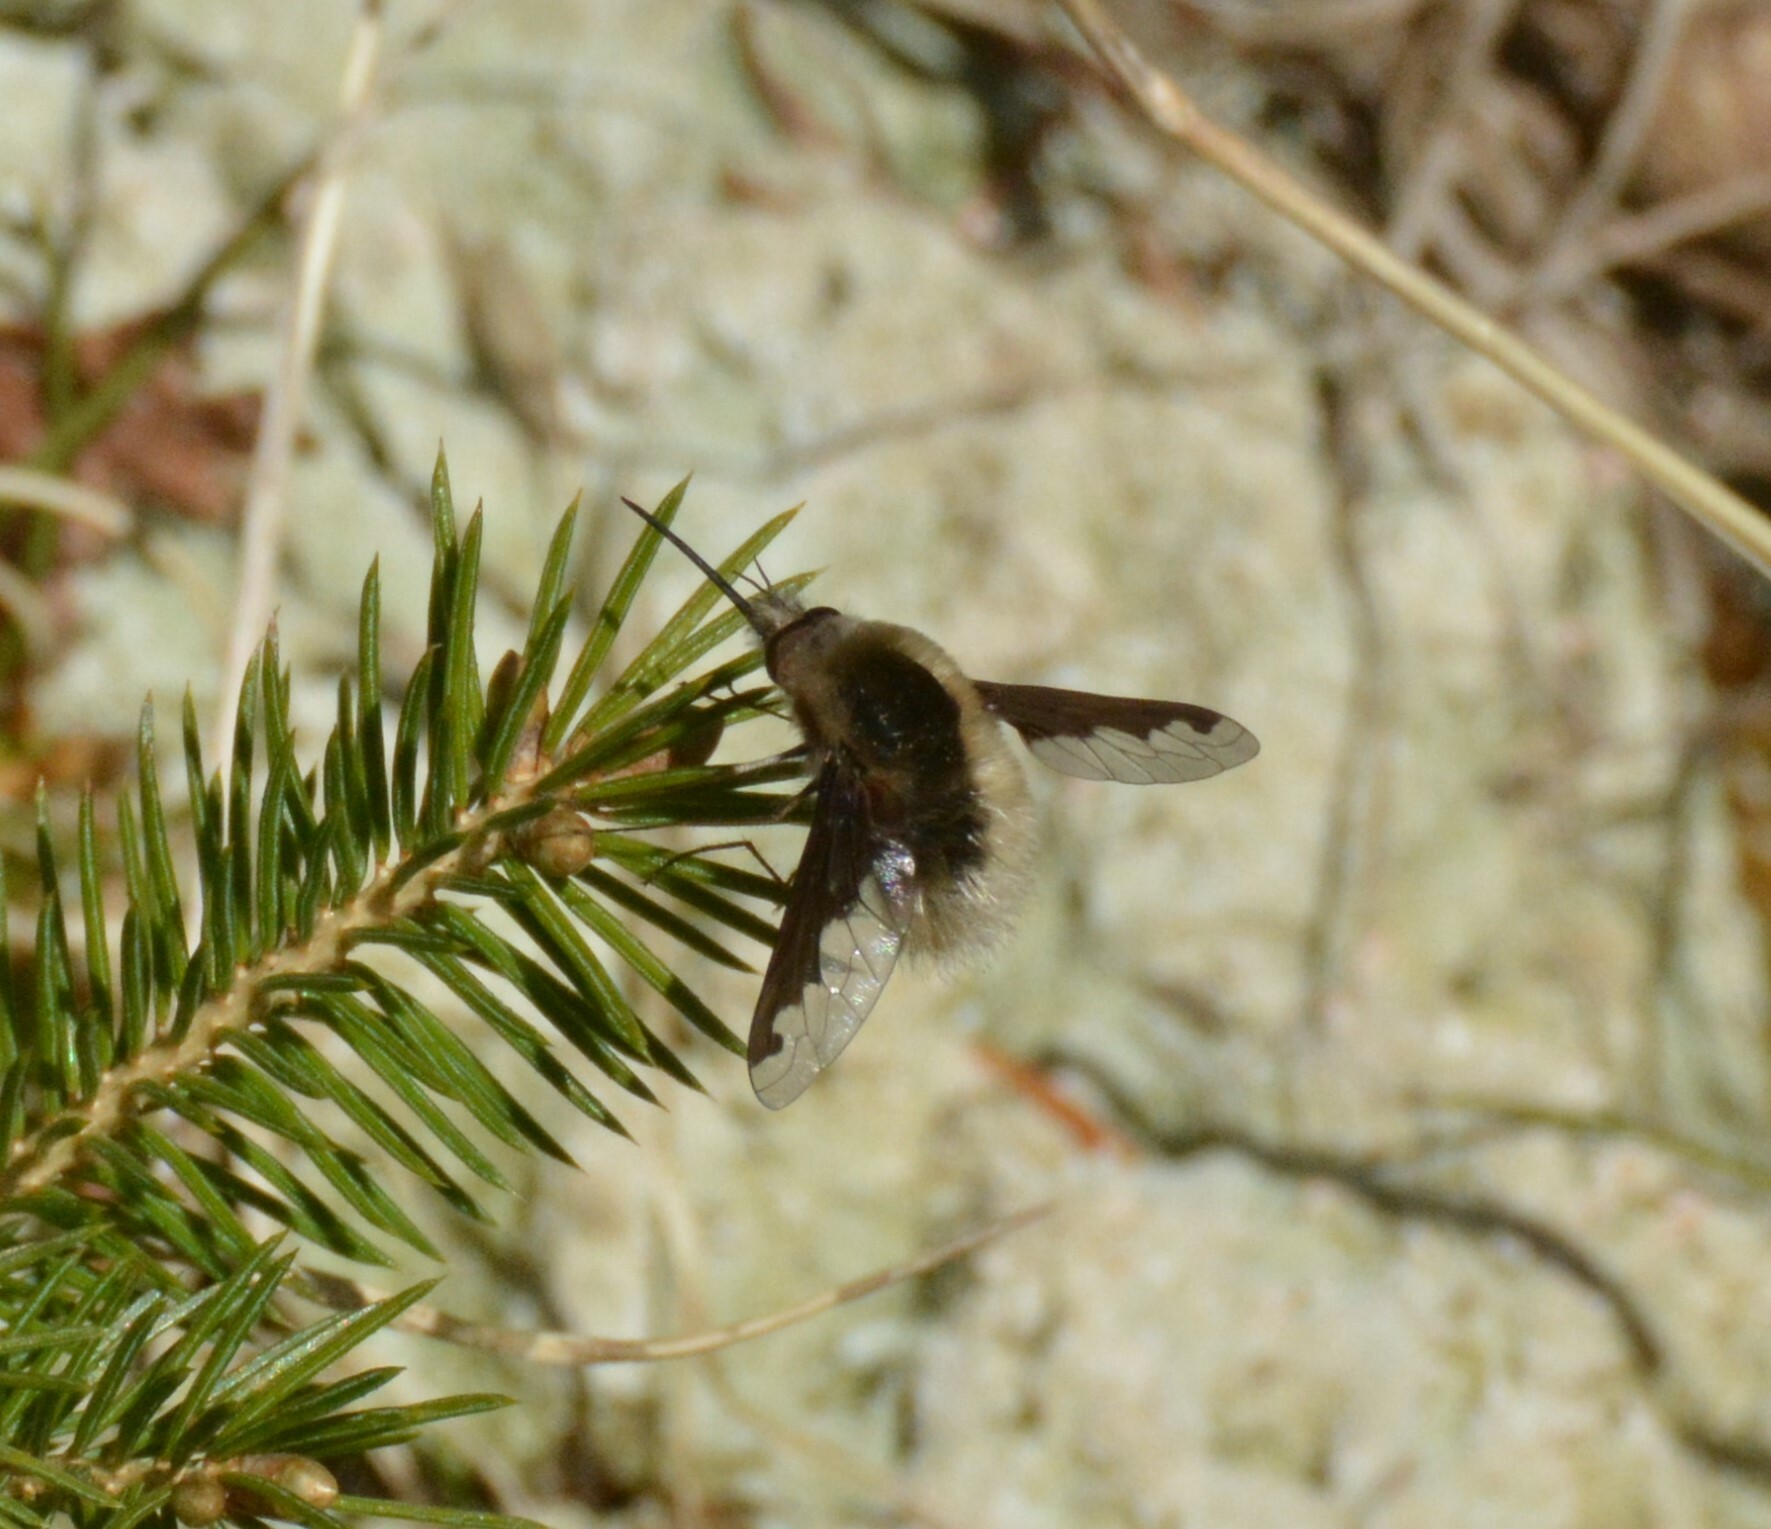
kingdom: Animalia
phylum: Arthropoda
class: Insecta
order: Diptera
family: Bombyliidae
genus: Bombylius
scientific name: Bombylius major
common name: Bee fly
